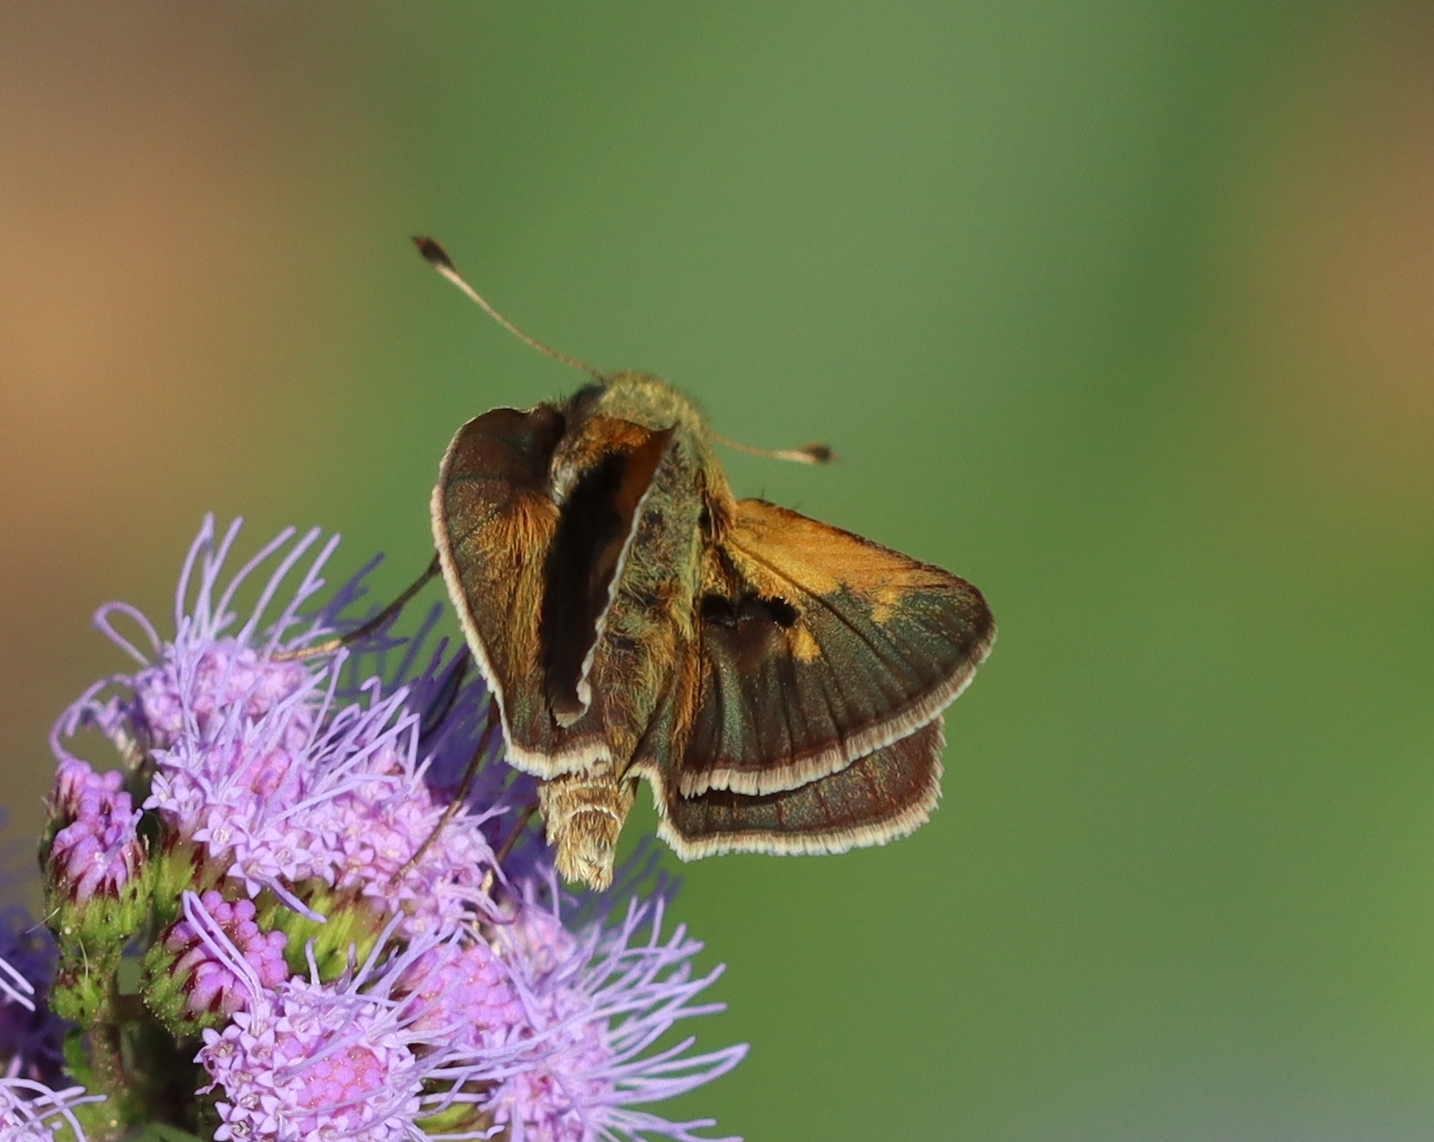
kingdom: Animalia
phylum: Arthropoda
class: Insecta
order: Lepidoptera
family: Hesperiidae
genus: Polites
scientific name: Polites themistocles
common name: Tawny-edged skipper
